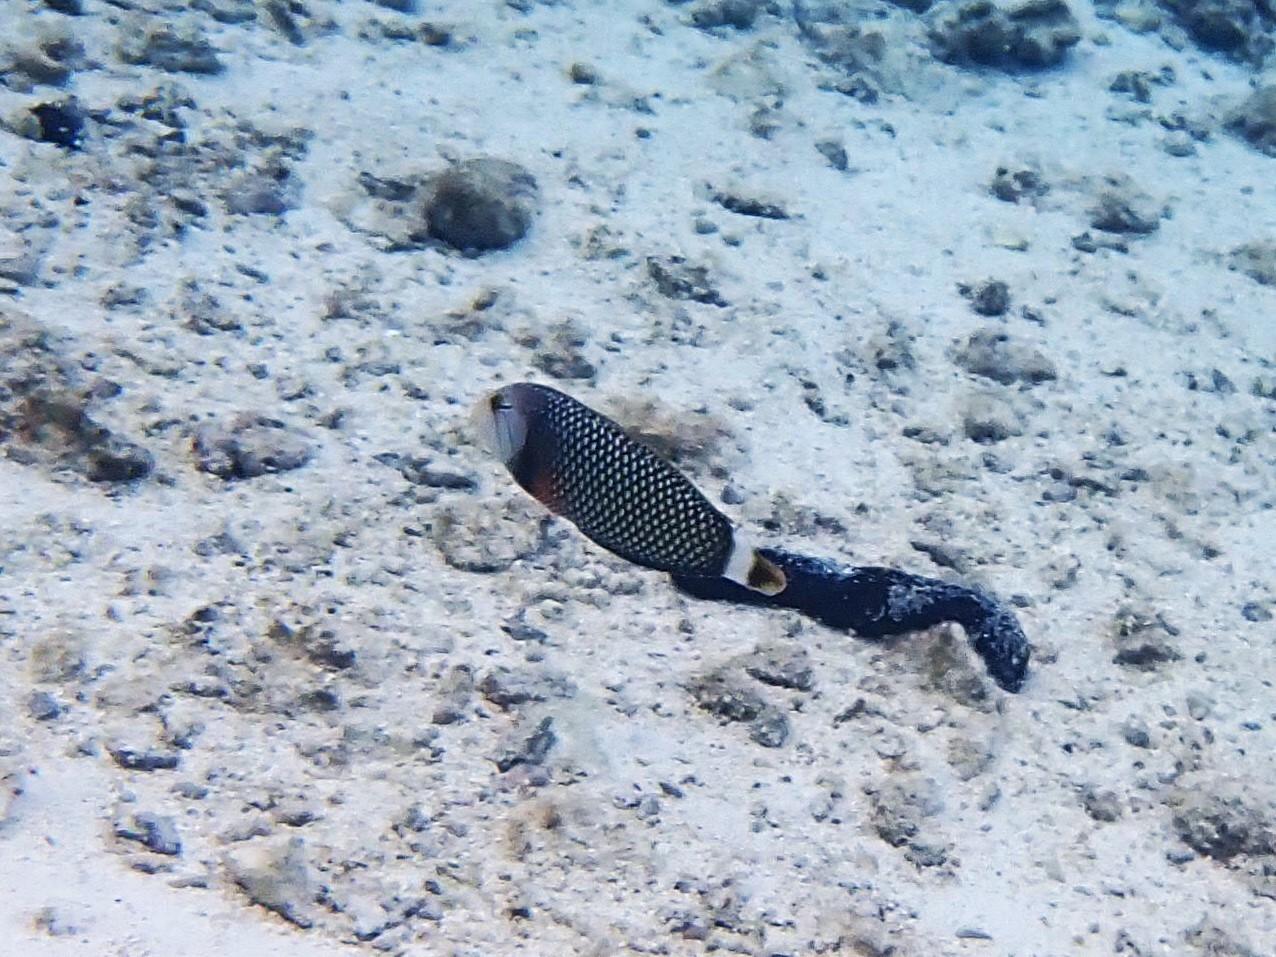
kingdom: Animalia
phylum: Chordata
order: Perciformes
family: Labridae
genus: Novaculichthys
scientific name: Novaculichthys taeniourus
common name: Rockmover wrasse
